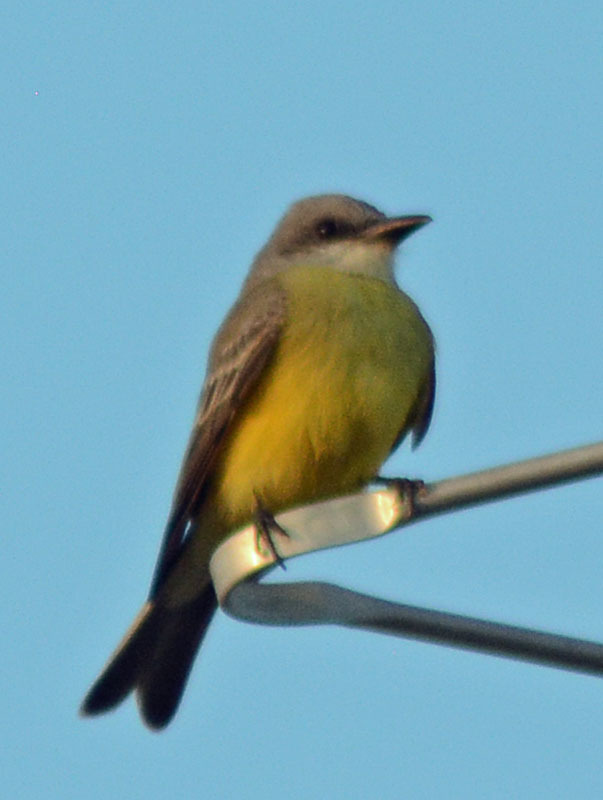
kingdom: Animalia
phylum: Chordata
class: Aves
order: Passeriformes
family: Tyrannidae
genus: Tyrannus
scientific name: Tyrannus melancholicus
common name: Tropical kingbird
